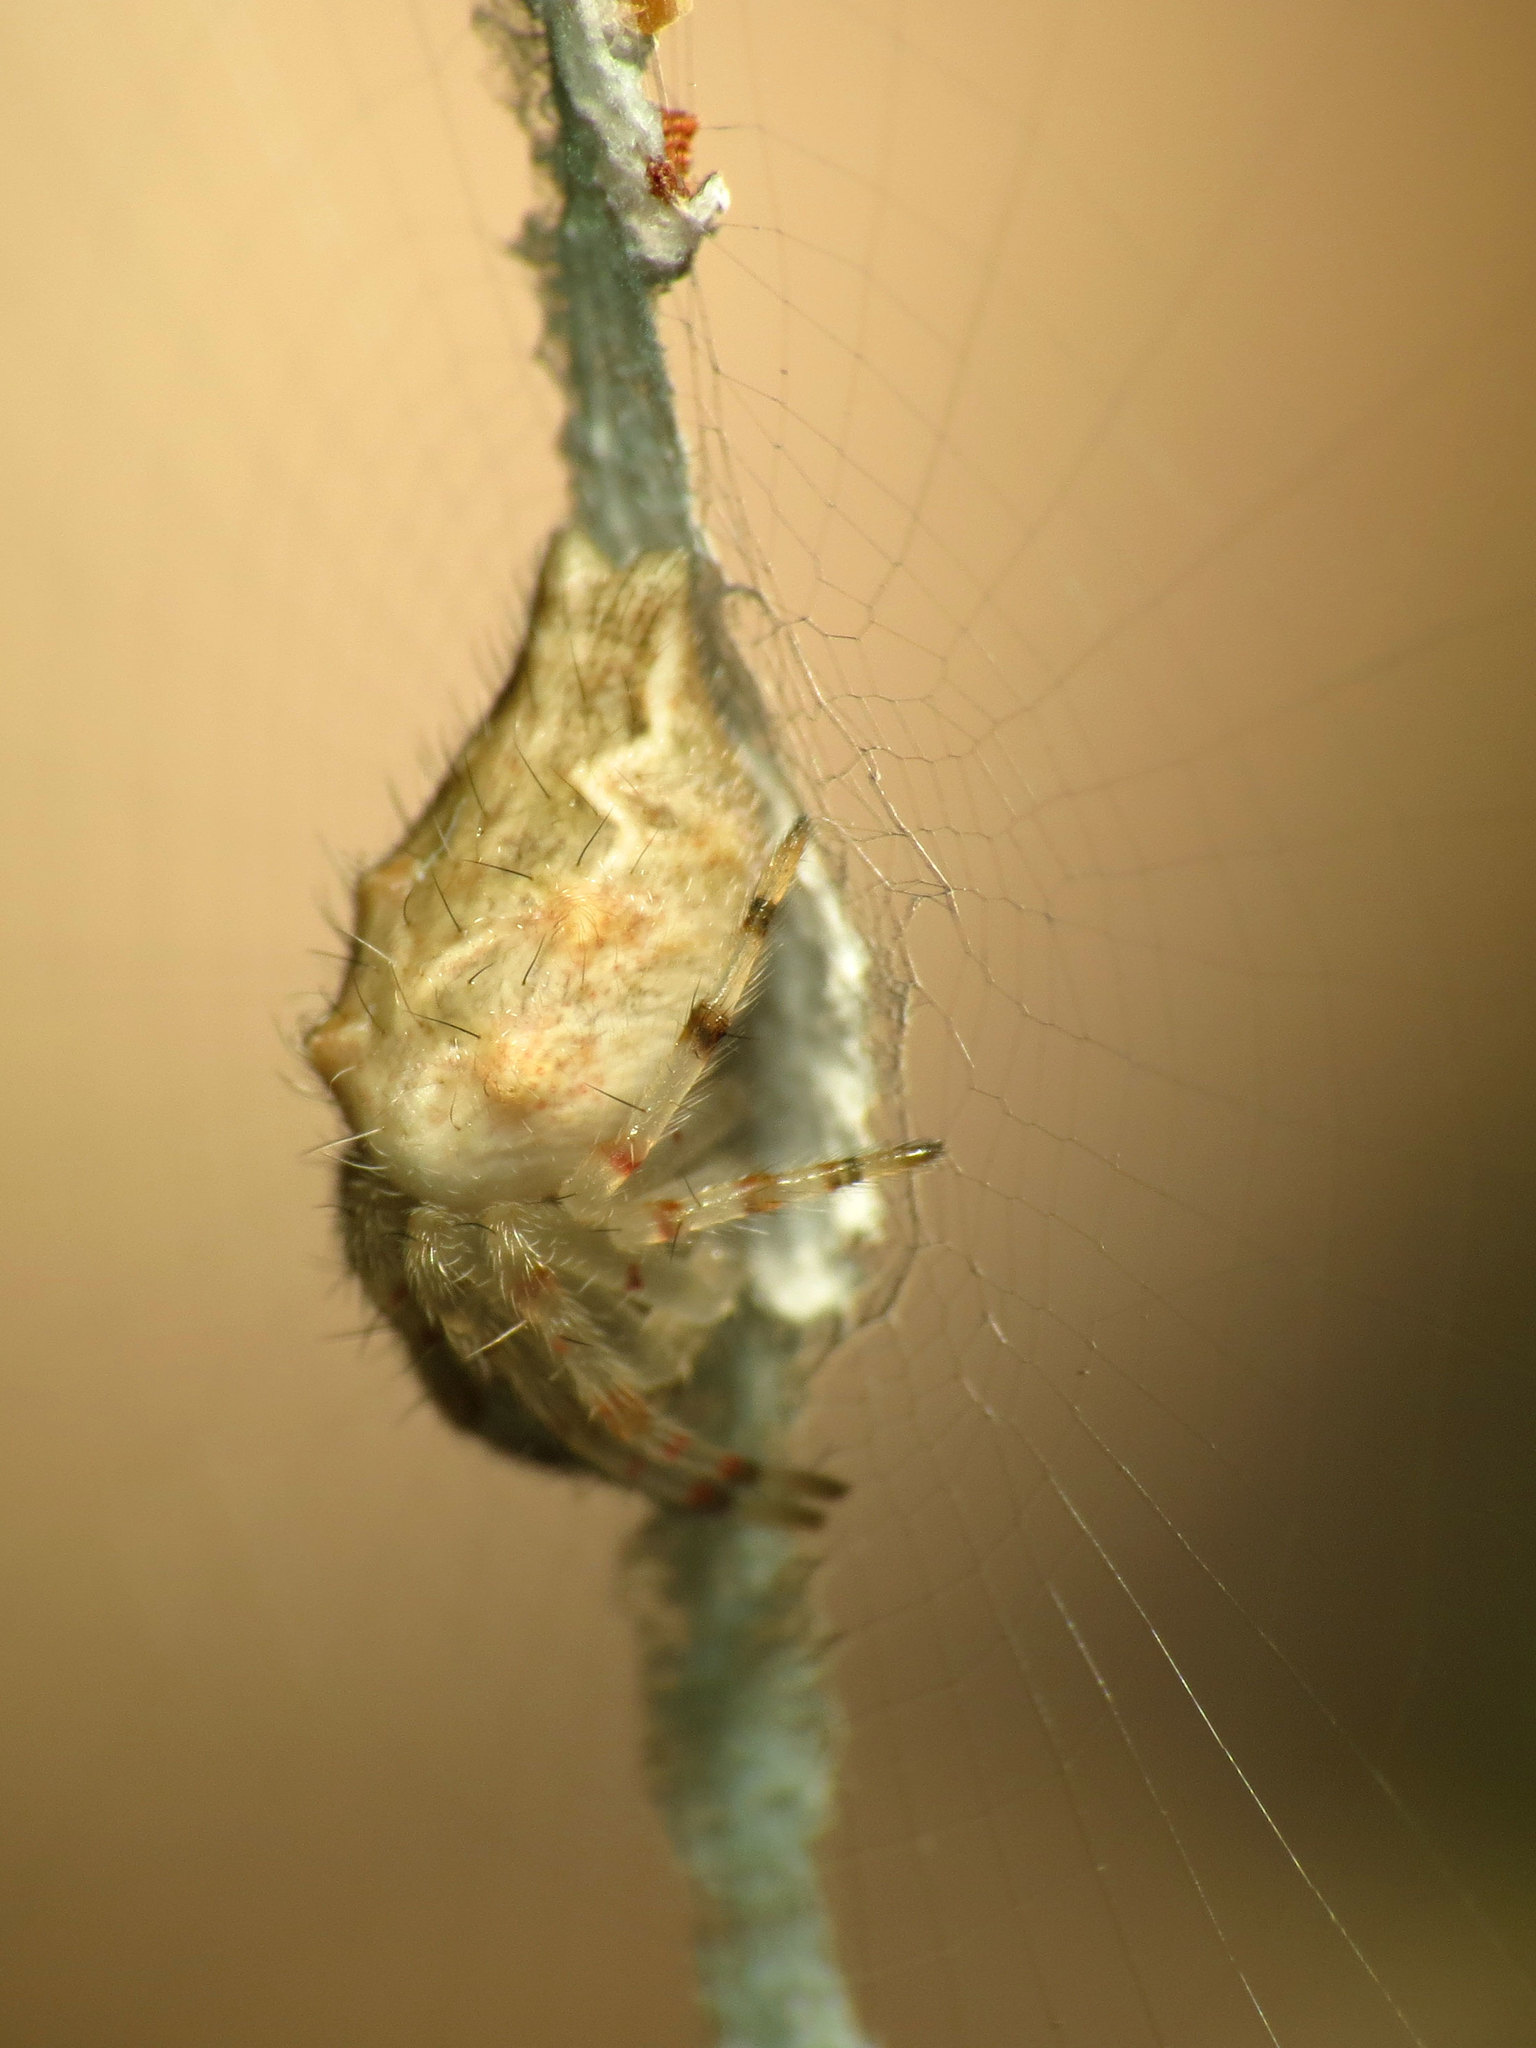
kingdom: Animalia
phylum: Arthropoda
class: Arachnida
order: Araneae
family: Araneidae
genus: Allocyclosa
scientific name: Allocyclosa bifurca
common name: Orb weavers
